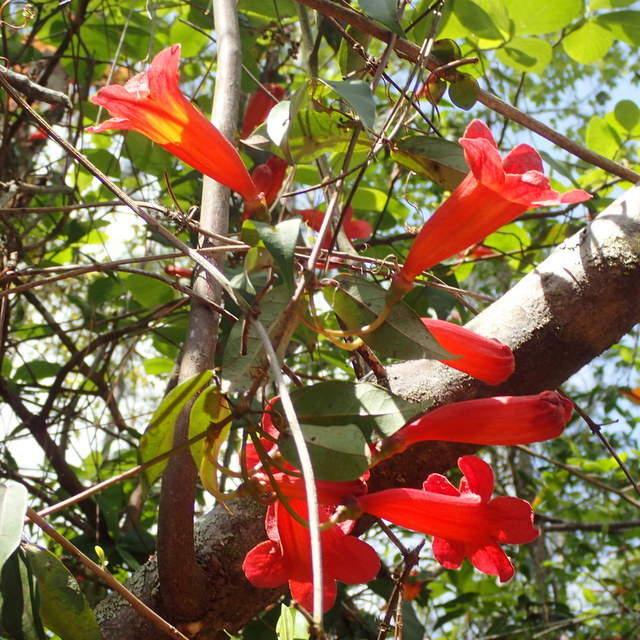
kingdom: Plantae
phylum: Tracheophyta
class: Magnoliopsida
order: Lamiales
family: Bignoniaceae
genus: Bignonia
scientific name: Bignonia capreolata
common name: Crossvine
